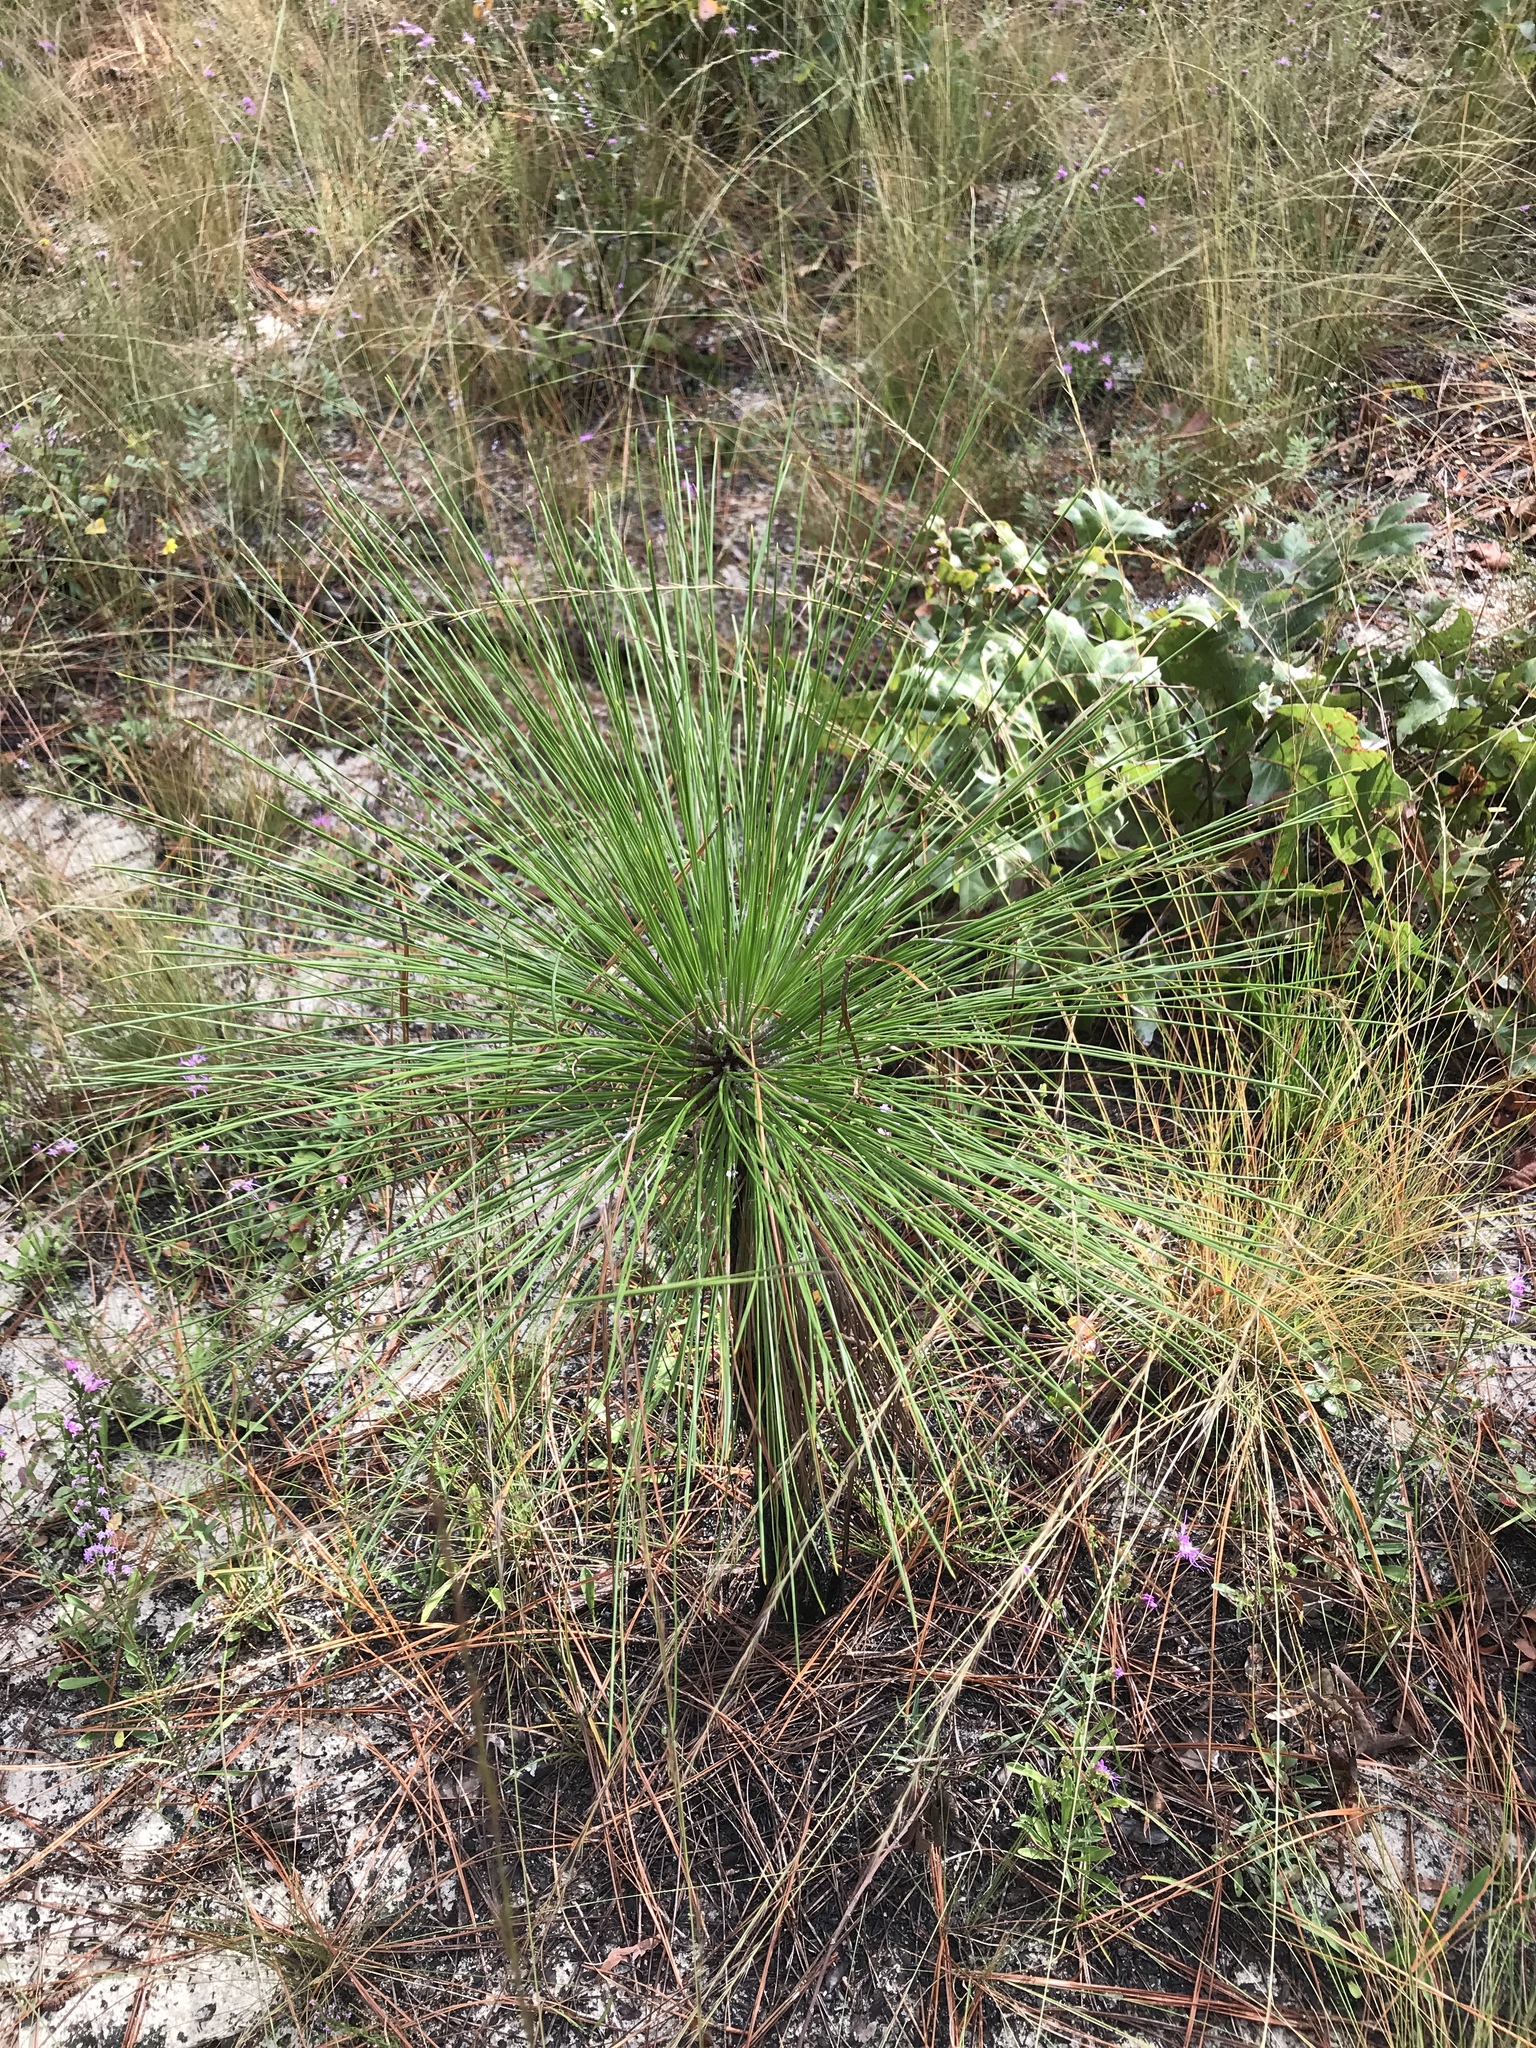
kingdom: Plantae
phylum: Tracheophyta
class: Pinopsida
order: Pinales
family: Pinaceae
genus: Pinus
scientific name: Pinus palustris
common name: Longleaf pine
